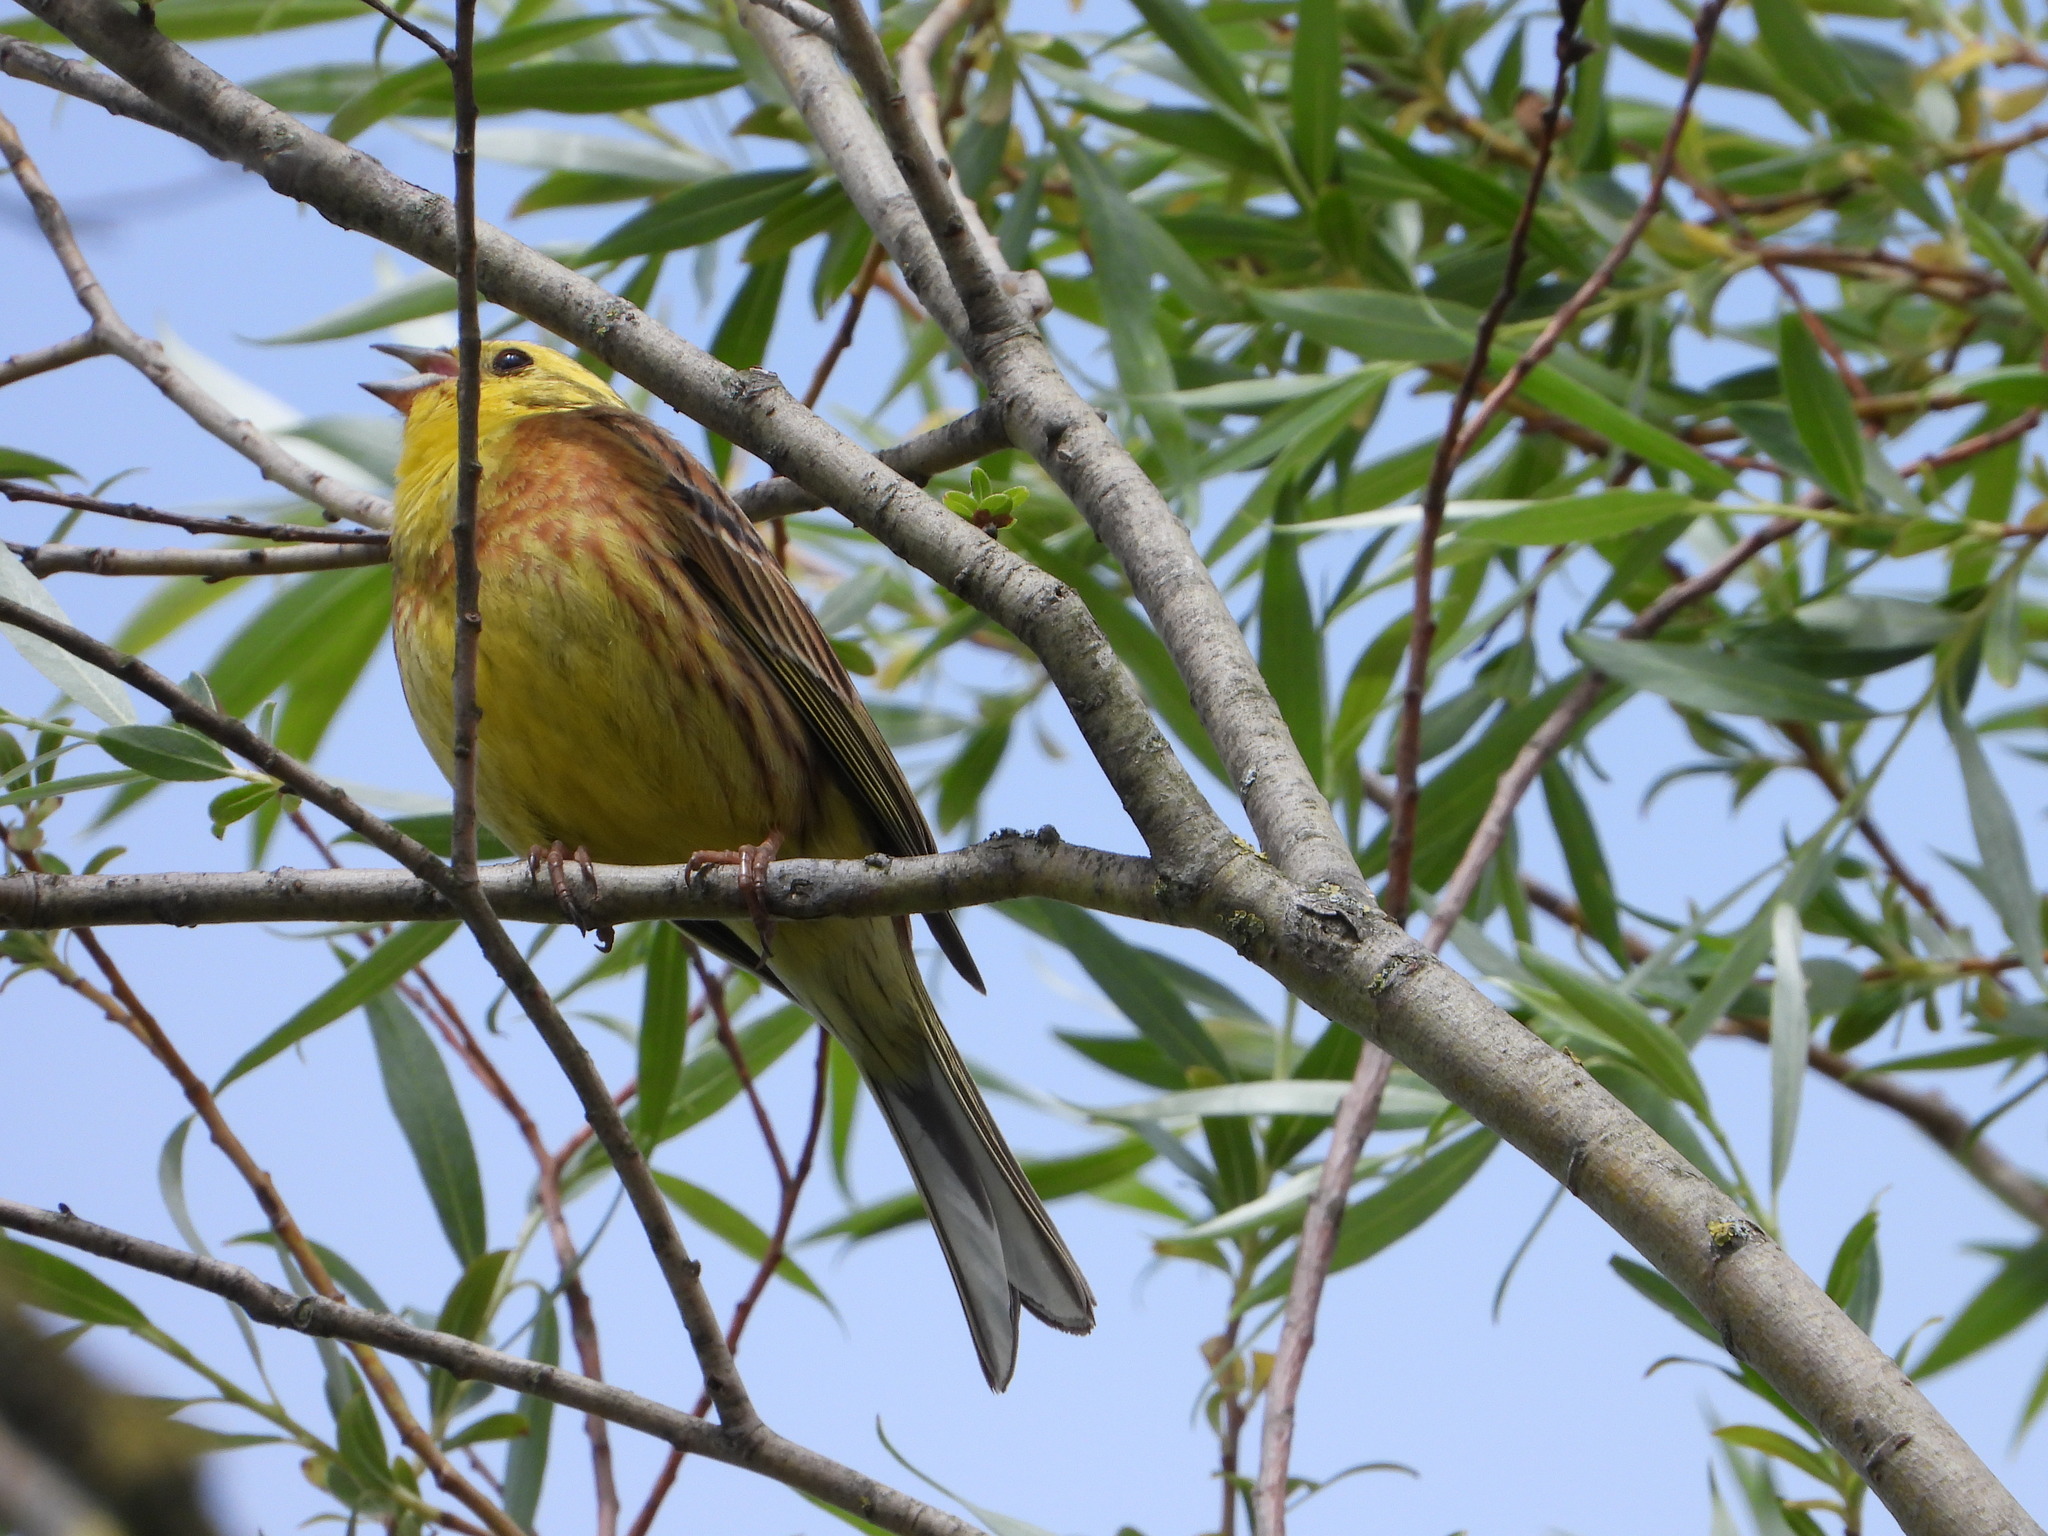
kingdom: Animalia
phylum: Chordata
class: Aves
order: Passeriformes
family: Emberizidae
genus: Emberiza
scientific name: Emberiza citrinella
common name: Yellowhammer
